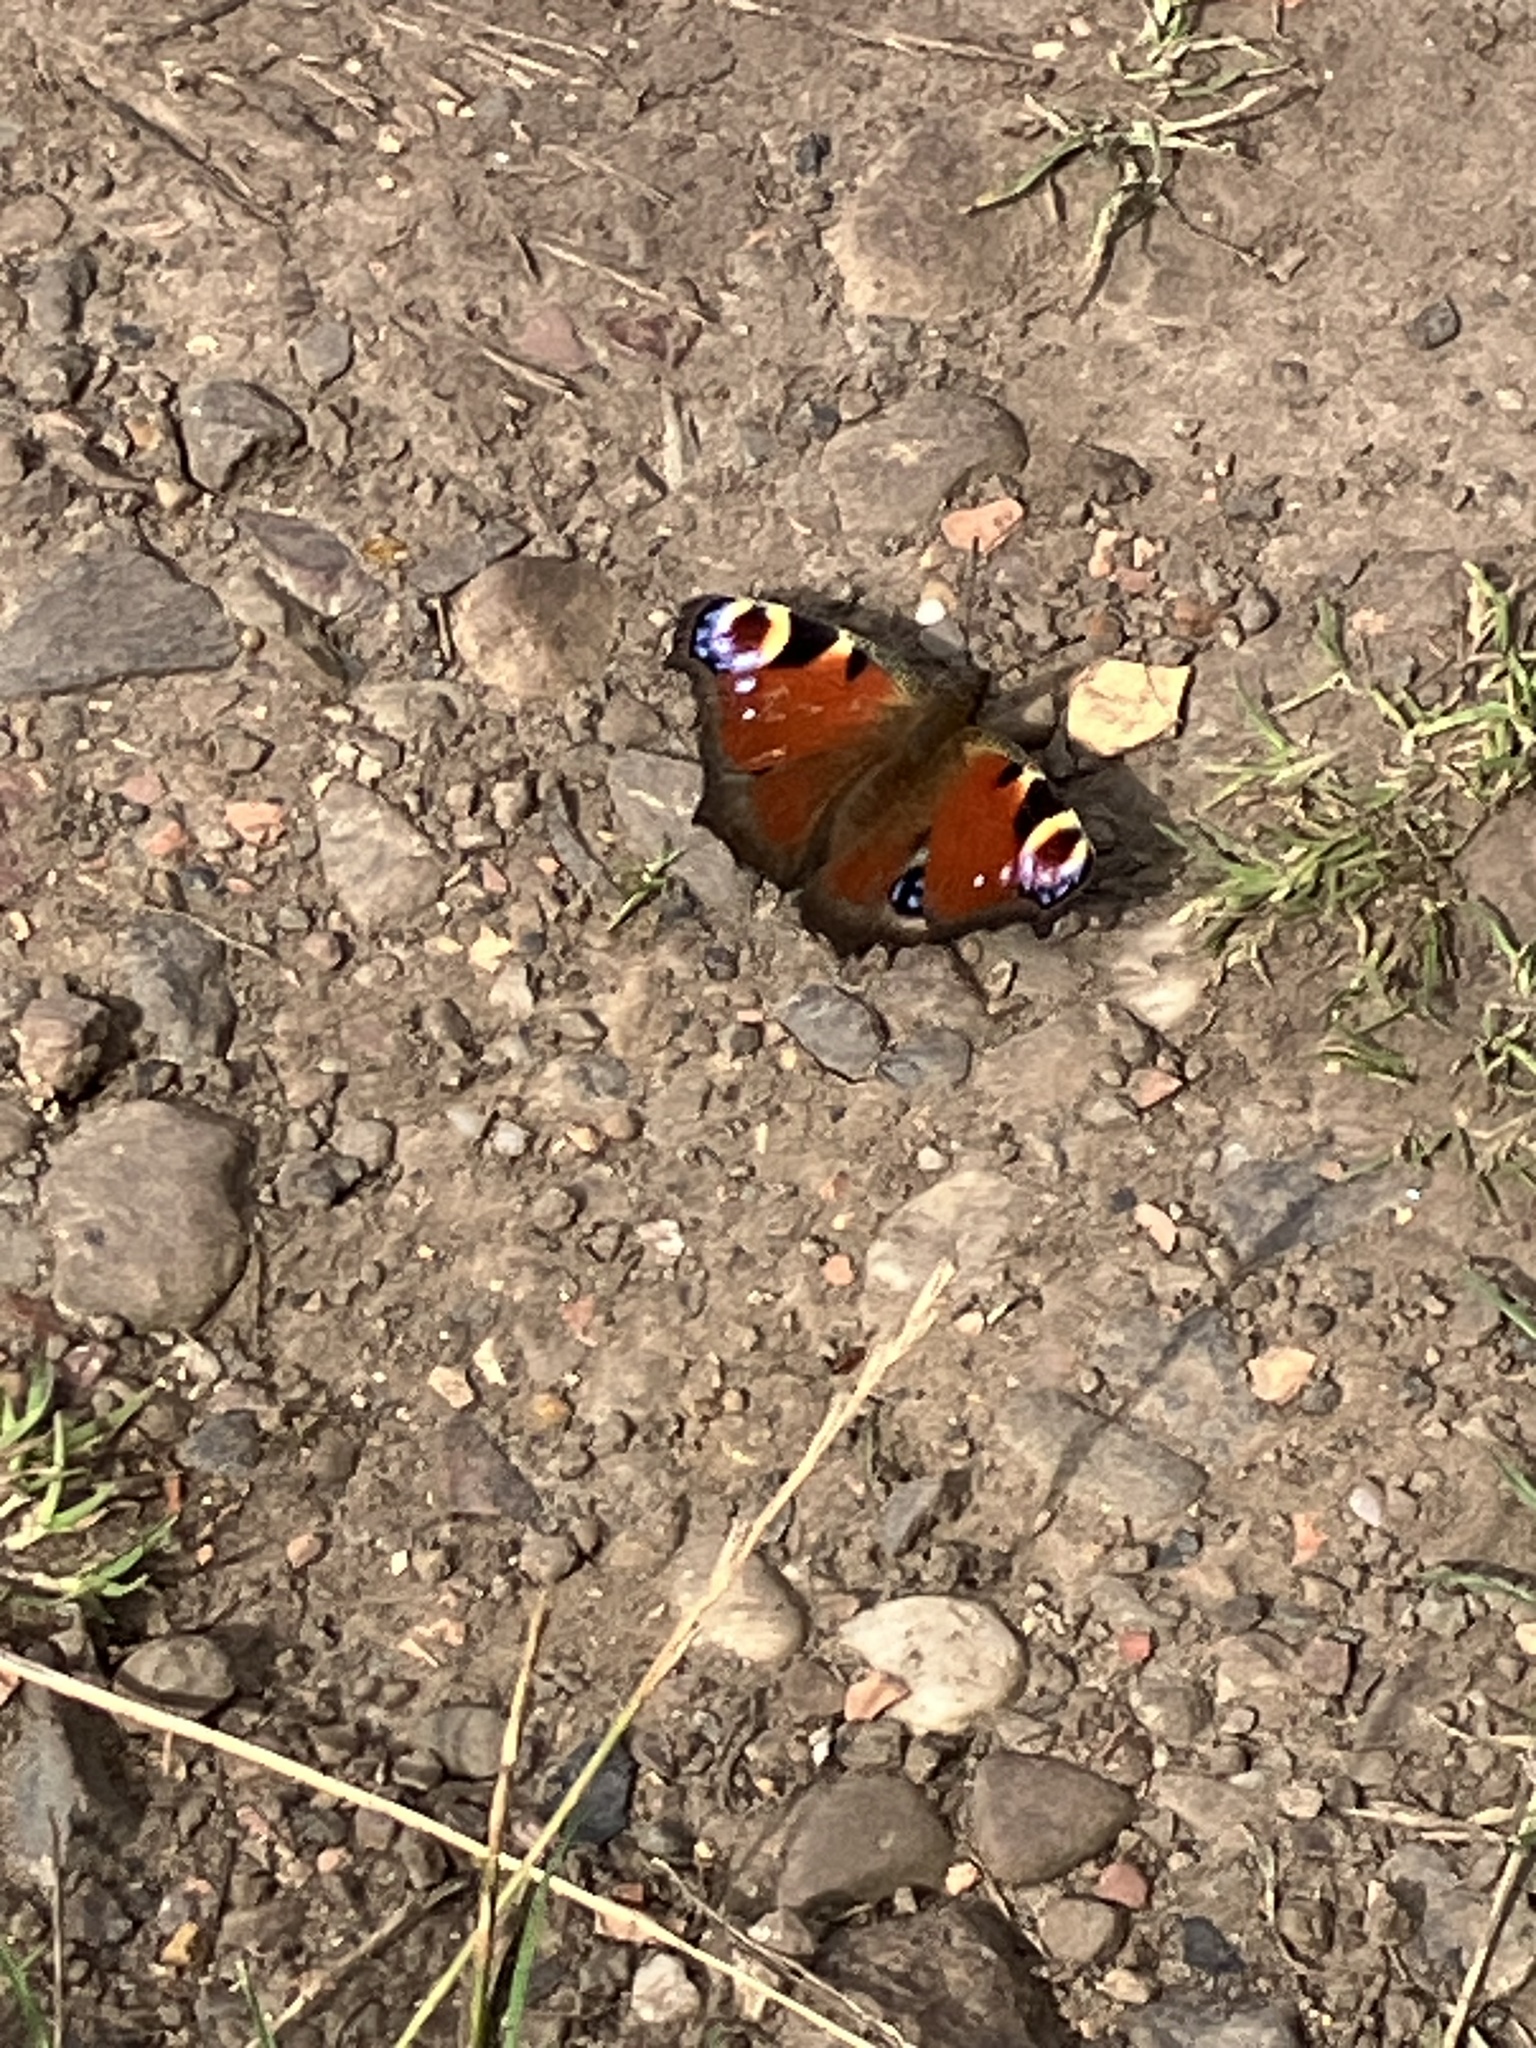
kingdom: Animalia
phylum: Arthropoda
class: Insecta
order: Lepidoptera
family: Nymphalidae
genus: Aglais
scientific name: Aglais io
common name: Peacock
